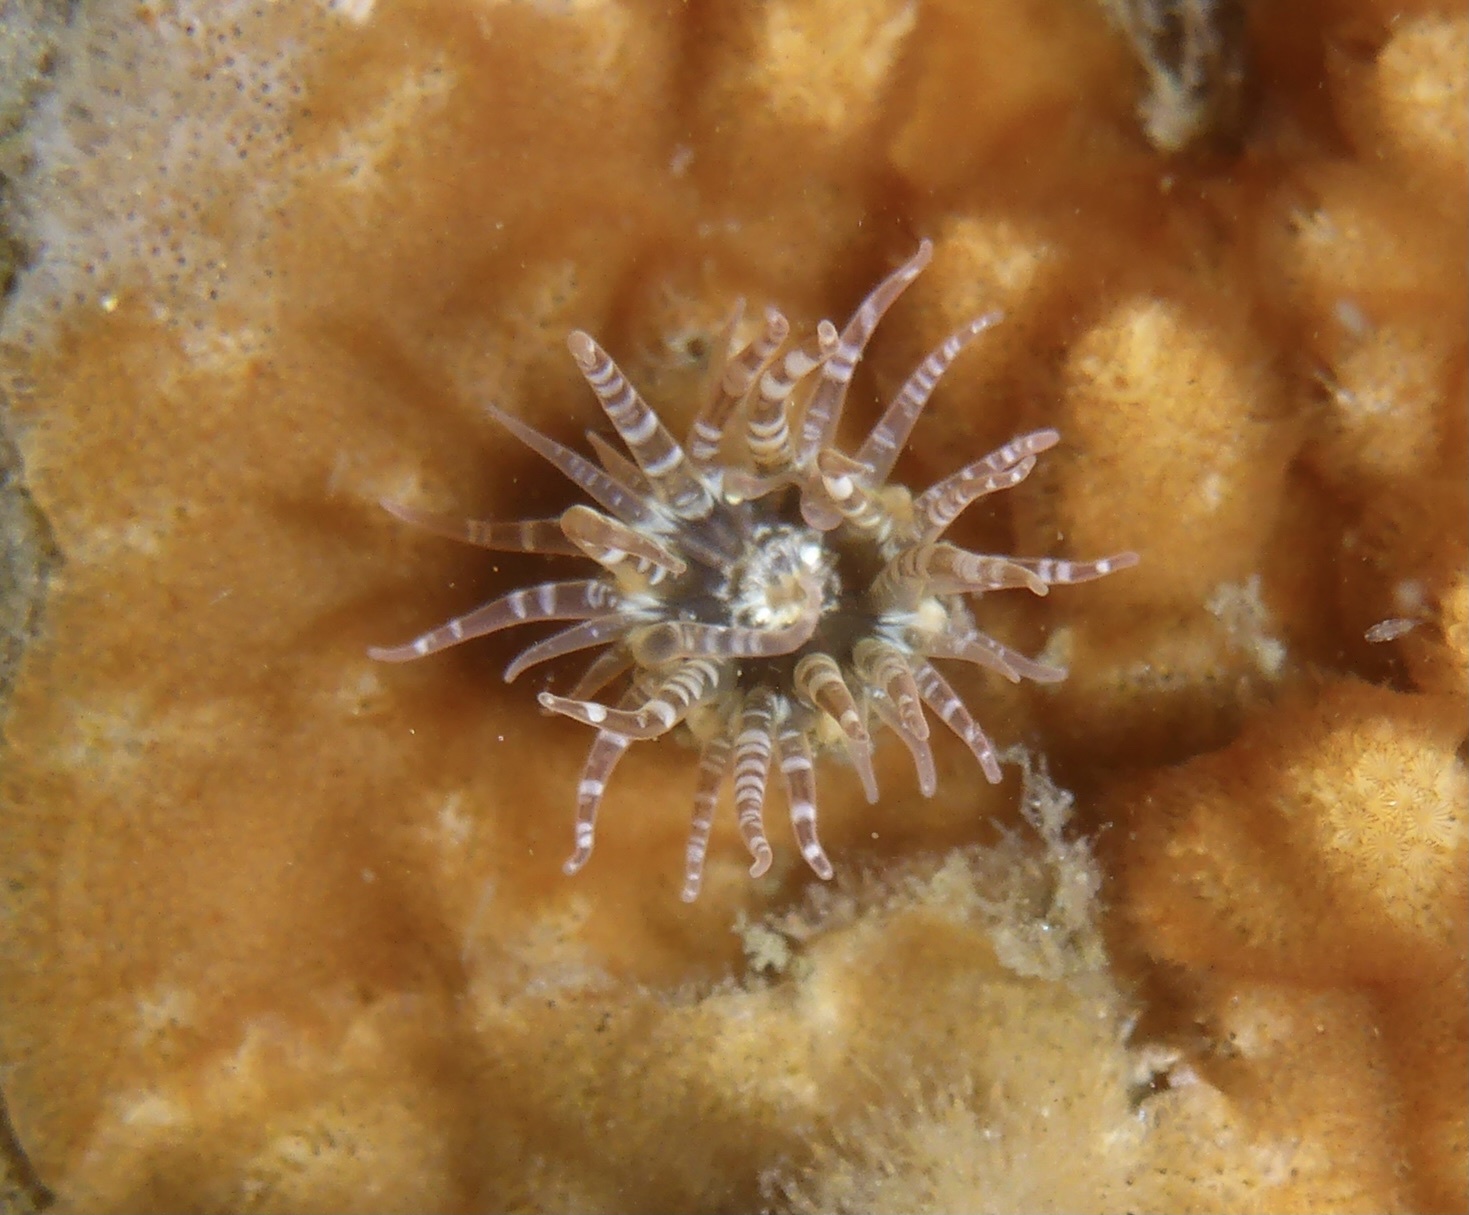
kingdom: Animalia
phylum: Cnidaria
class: Anthozoa
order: Actiniaria
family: Actiniidae
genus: Anthopleura
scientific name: Anthopleura artemisia
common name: Buried sea anemone
